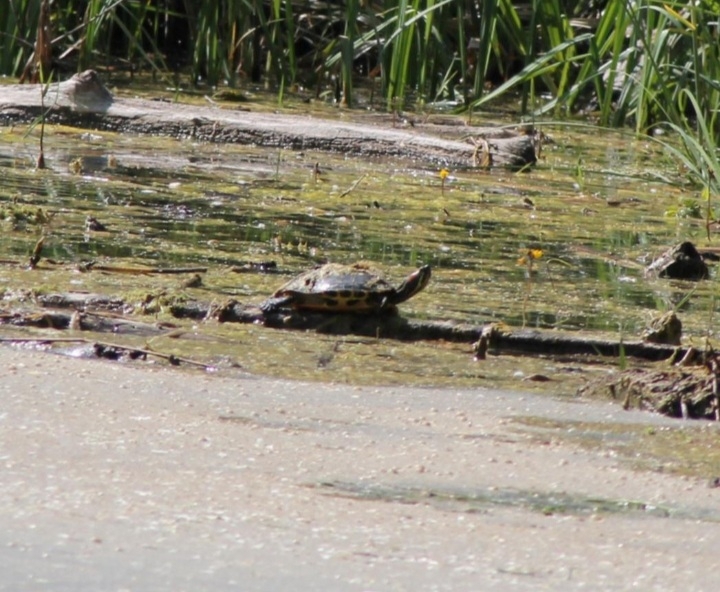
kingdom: Animalia
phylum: Chordata
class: Testudines
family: Emydidae
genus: Trachemys
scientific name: Trachemys scripta
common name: Slider
